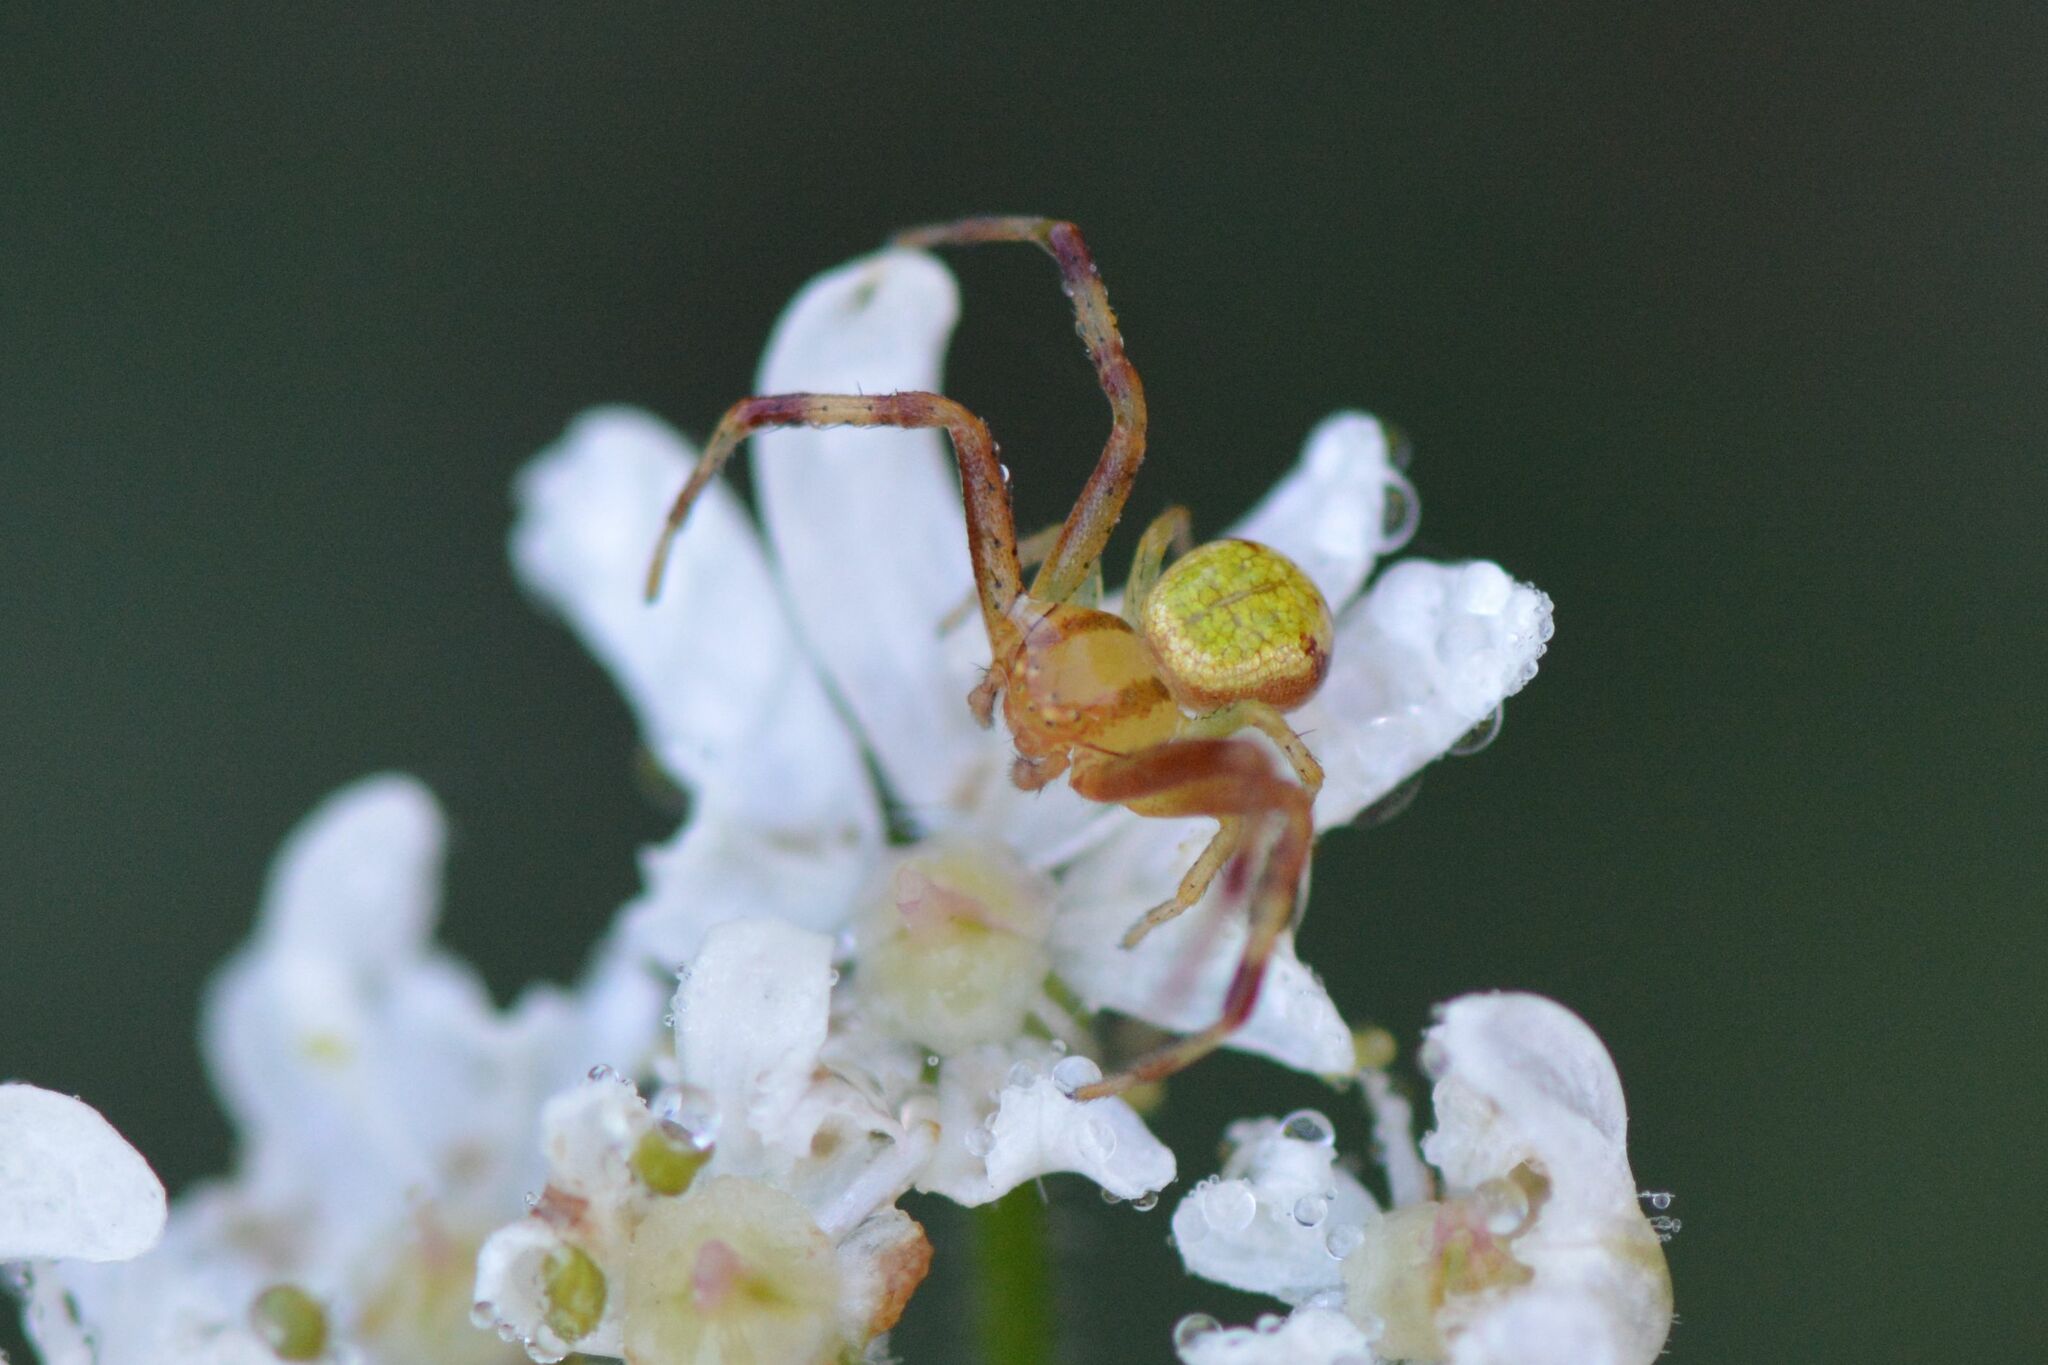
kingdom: Animalia
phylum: Arthropoda
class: Arachnida
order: Araneae
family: Thomisidae
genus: Ebrechtella
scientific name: Ebrechtella tricuspidata
